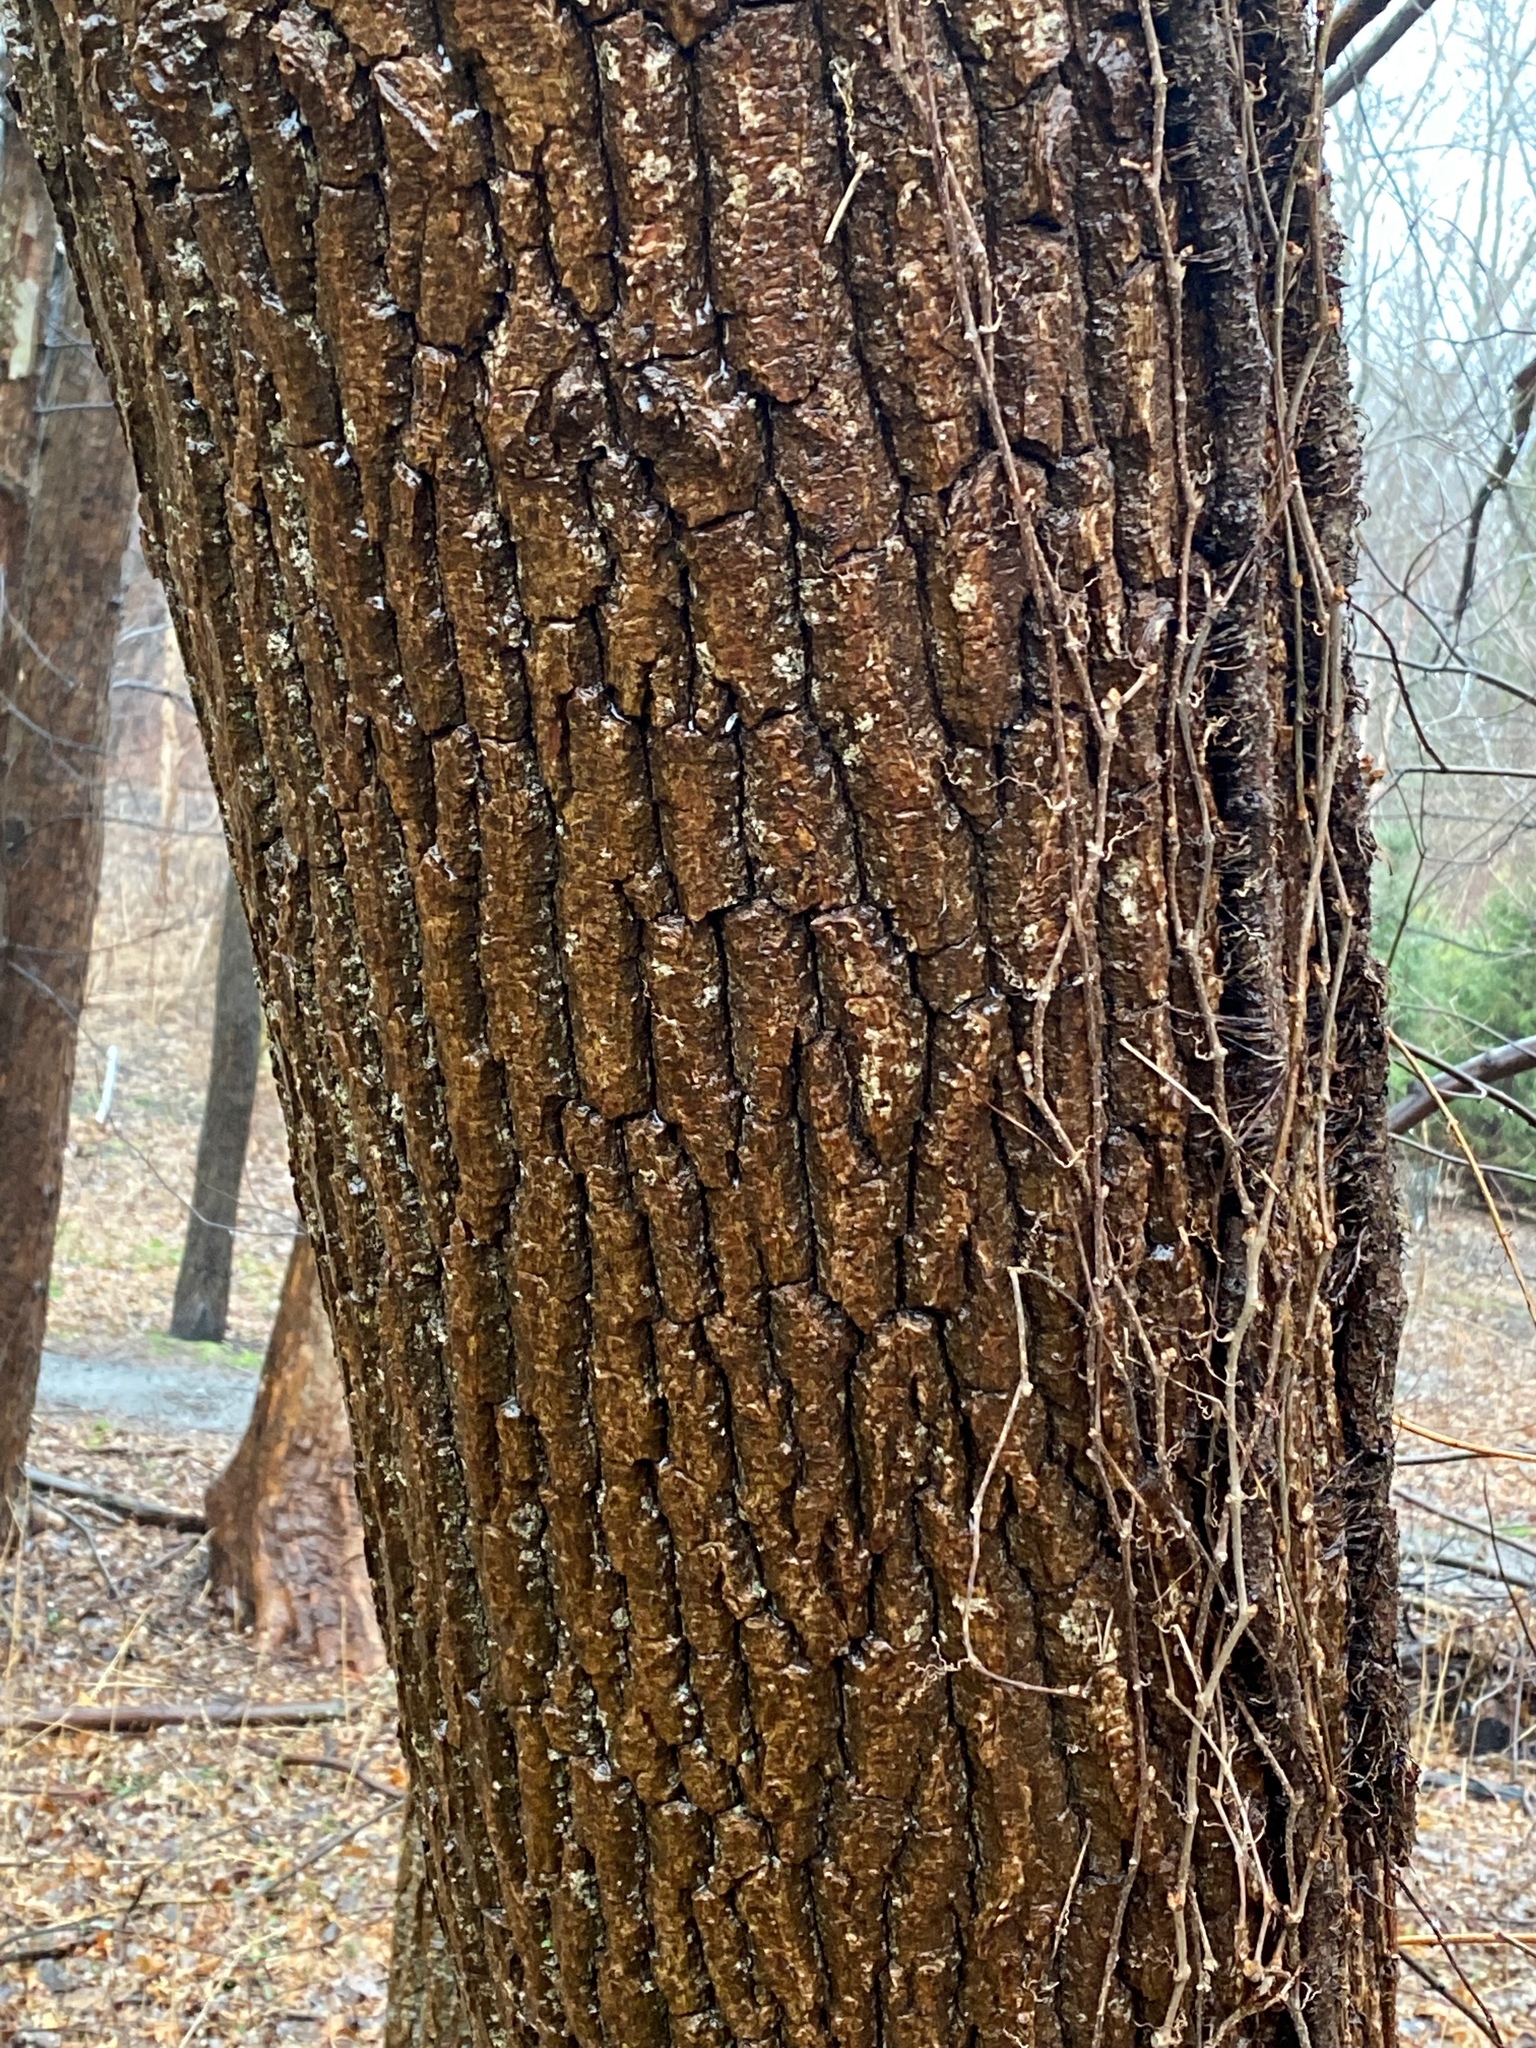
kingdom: Plantae
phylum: Tracheophyta
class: Magnoliopsida
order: Fagales
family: Juglandaceae
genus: Juglans
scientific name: Juglans nigra
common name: Black walnut
